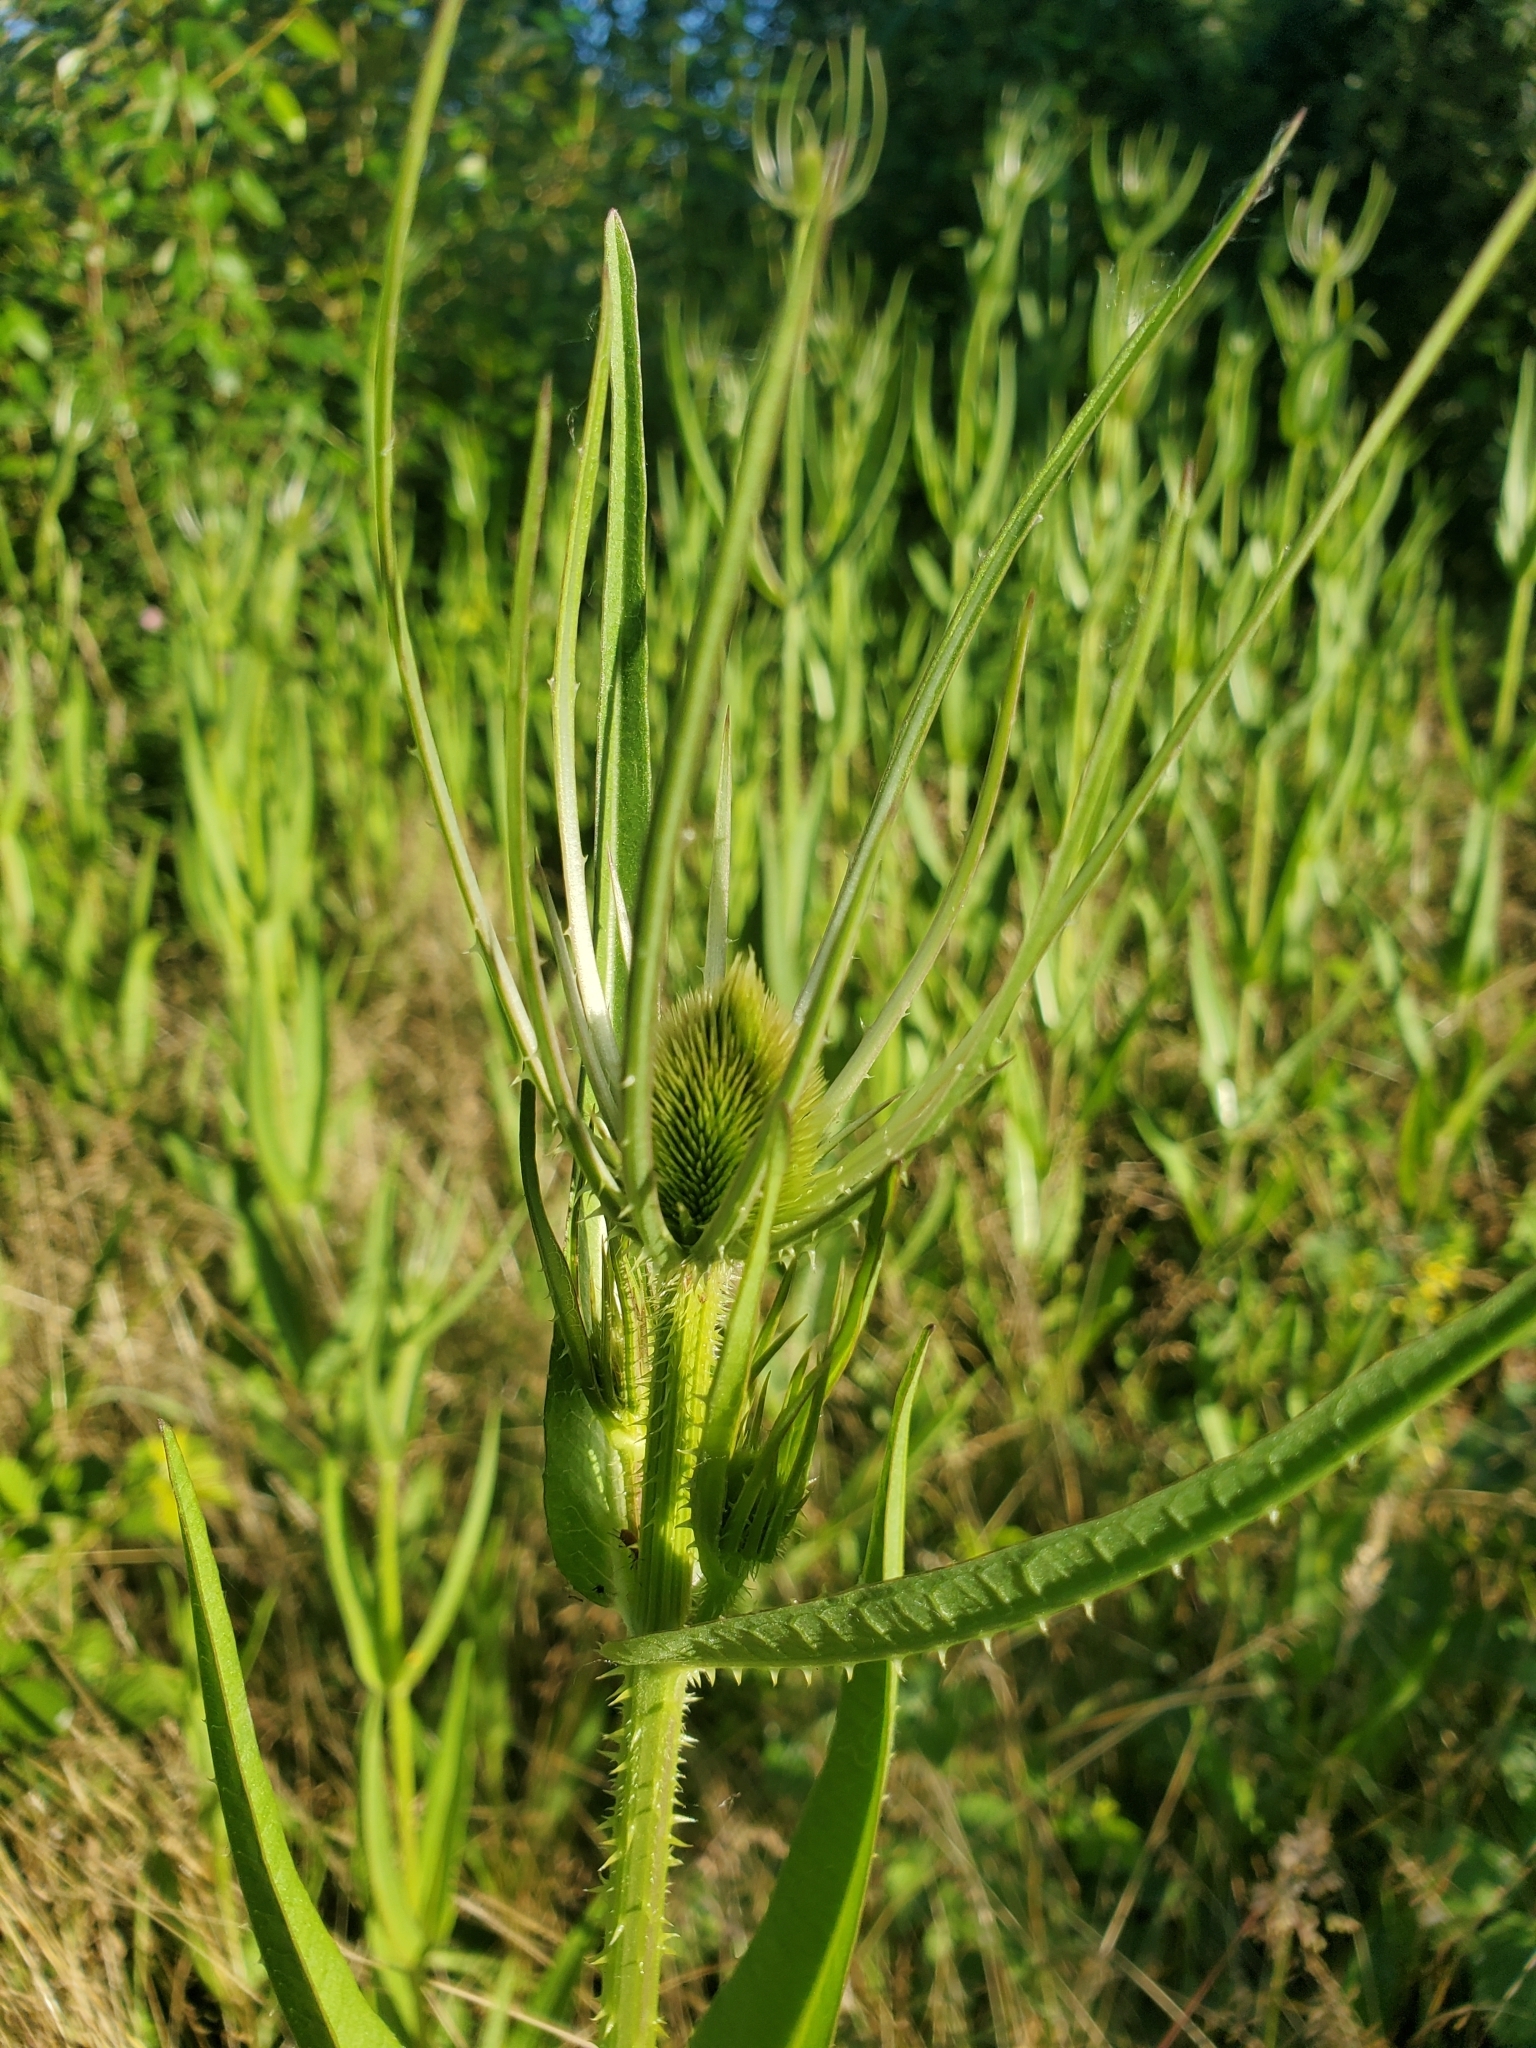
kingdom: Plantae
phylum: Tracheophyta
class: Magnoliopsida
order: Dipsacales
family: Caprifoliaceae
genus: Dipsacus
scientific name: Dipsacus fullonum
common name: Teasel
